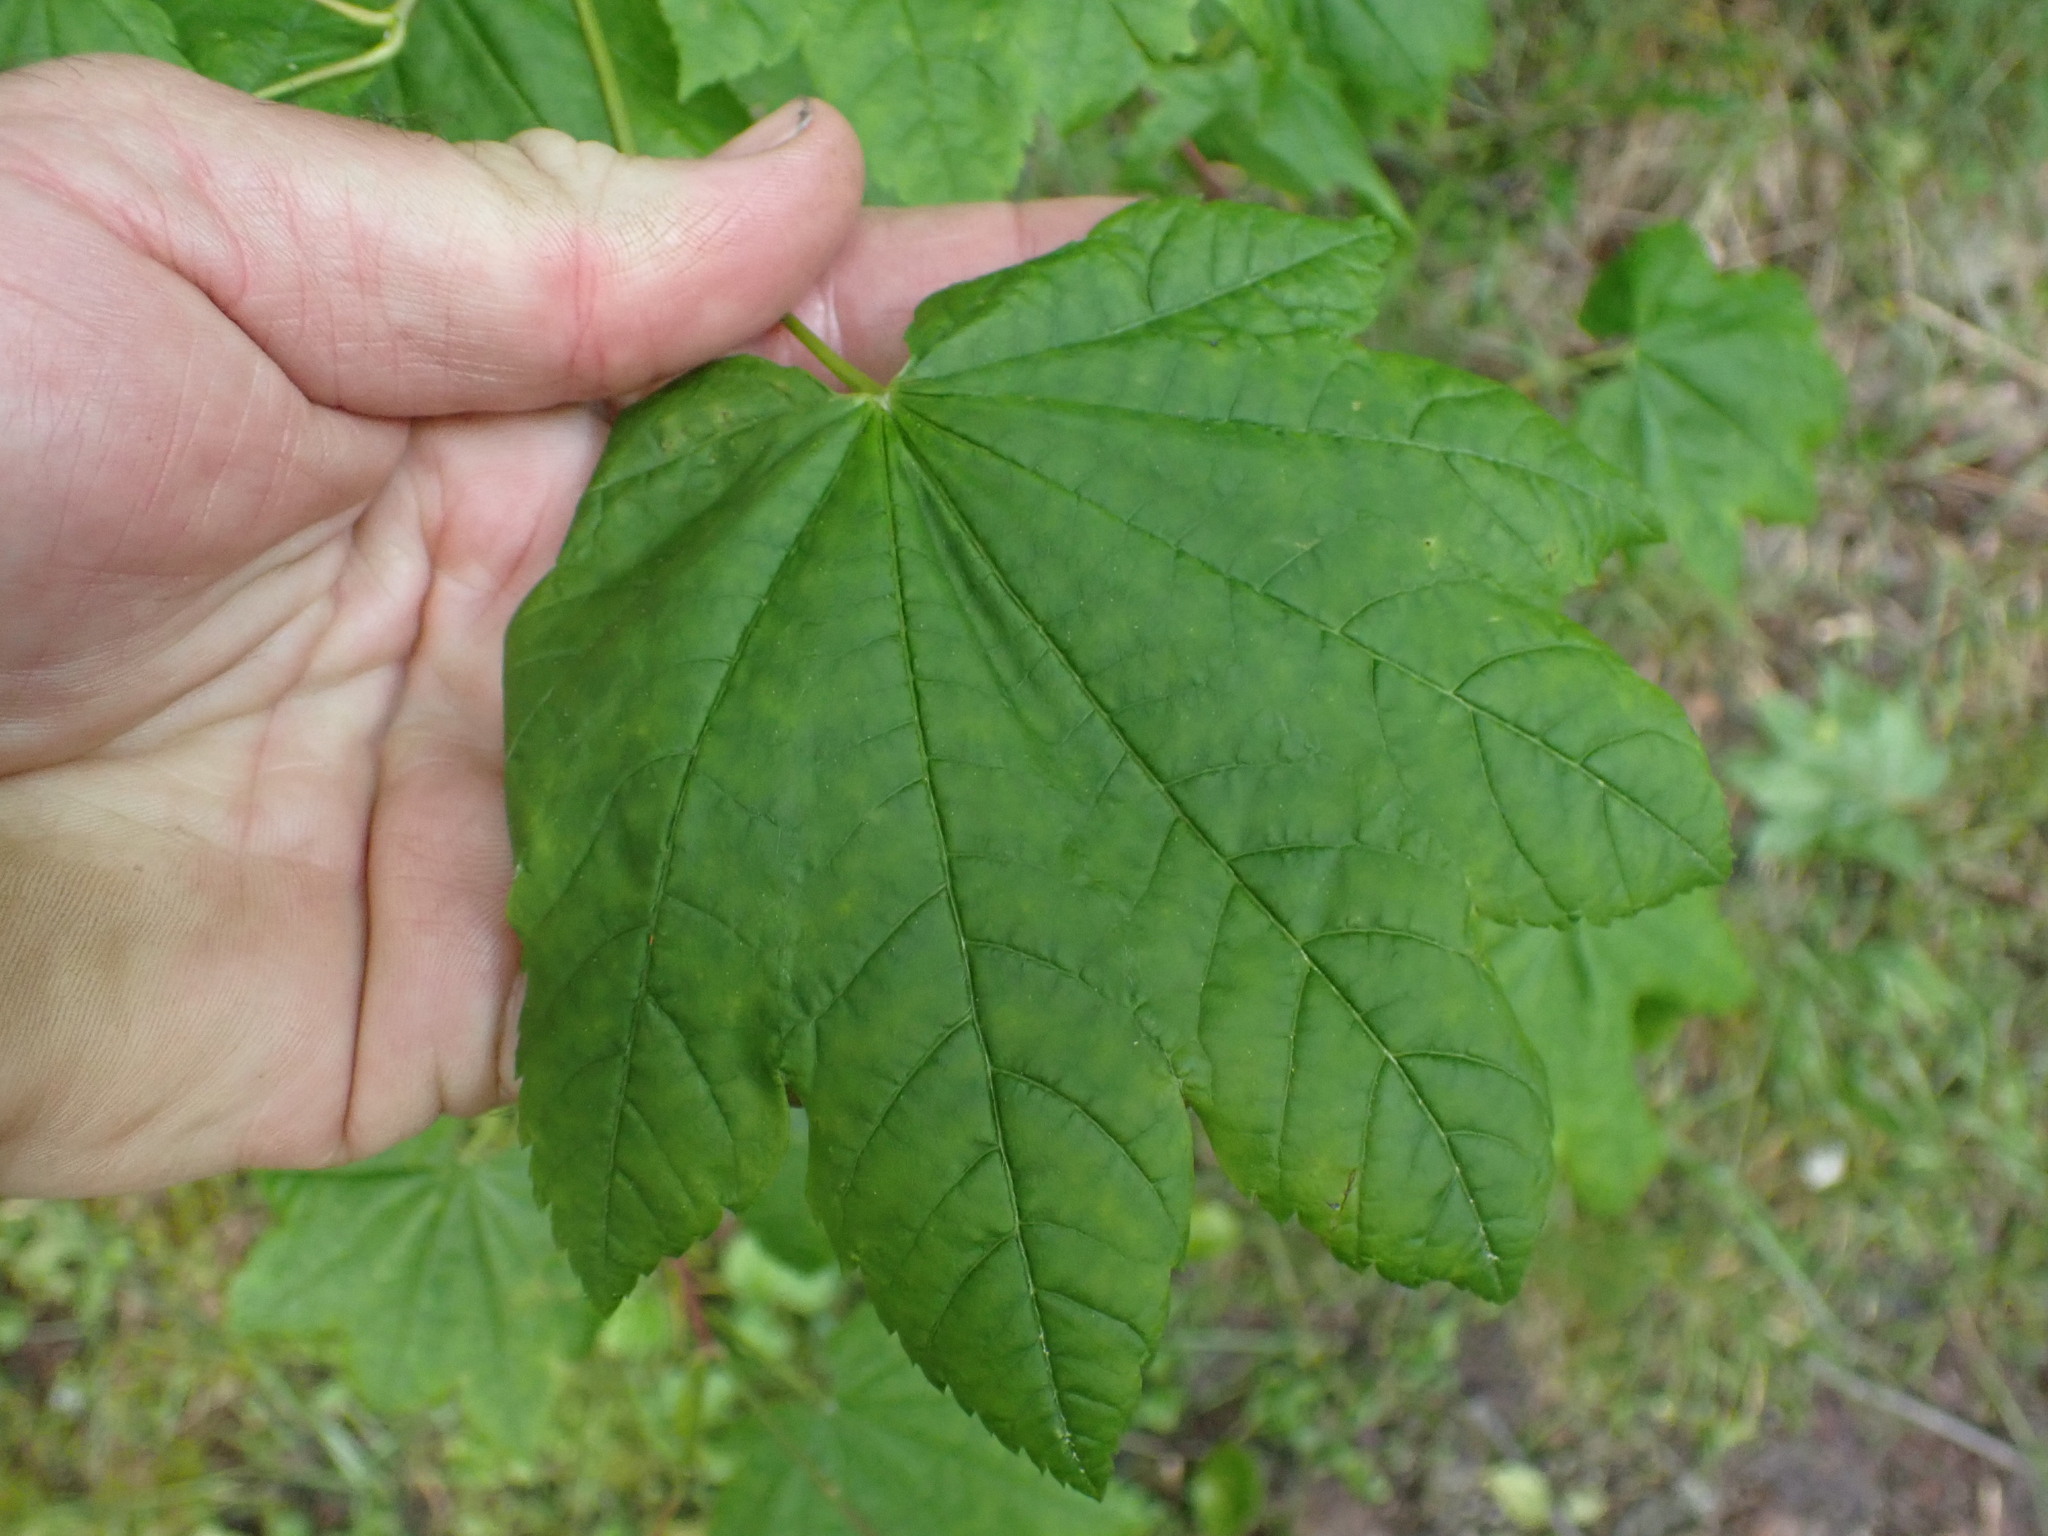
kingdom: Plantae
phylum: Tracheophyta
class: Magnoliopsida
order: Sapindales
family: Sapindaceae
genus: Acer
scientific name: Acer circinatum
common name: Vine maple
